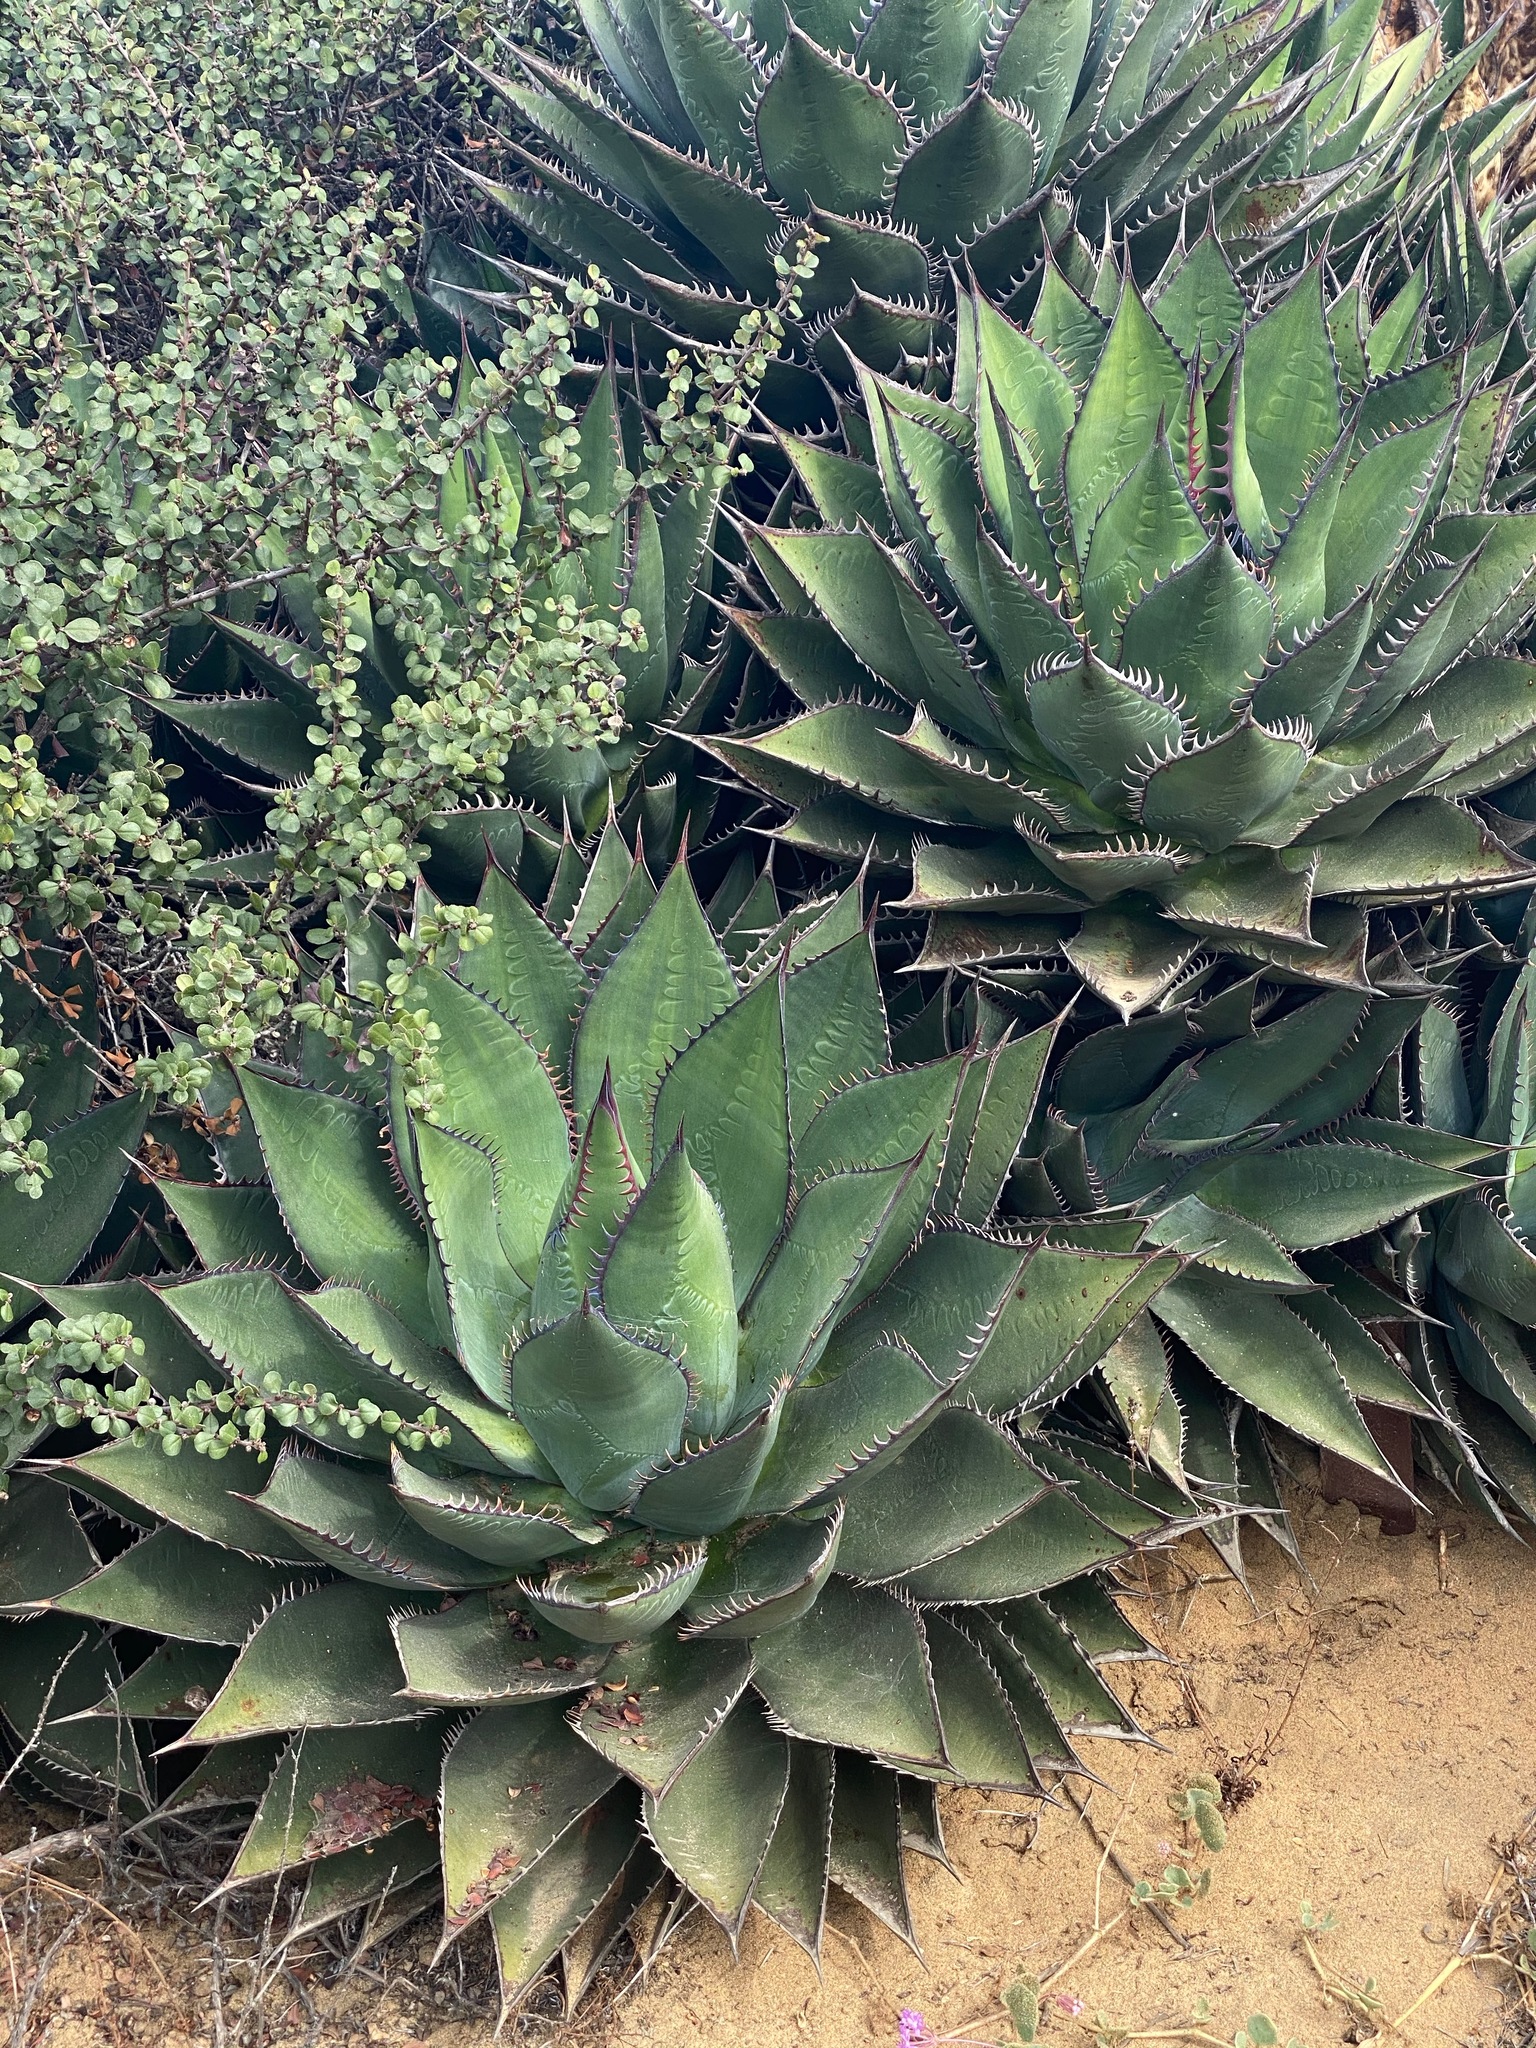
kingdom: Plantae
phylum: Tracheophyta
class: Liliopsida
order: Asparagales
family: Asparagaceae
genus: Agave
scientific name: Agave shawii
